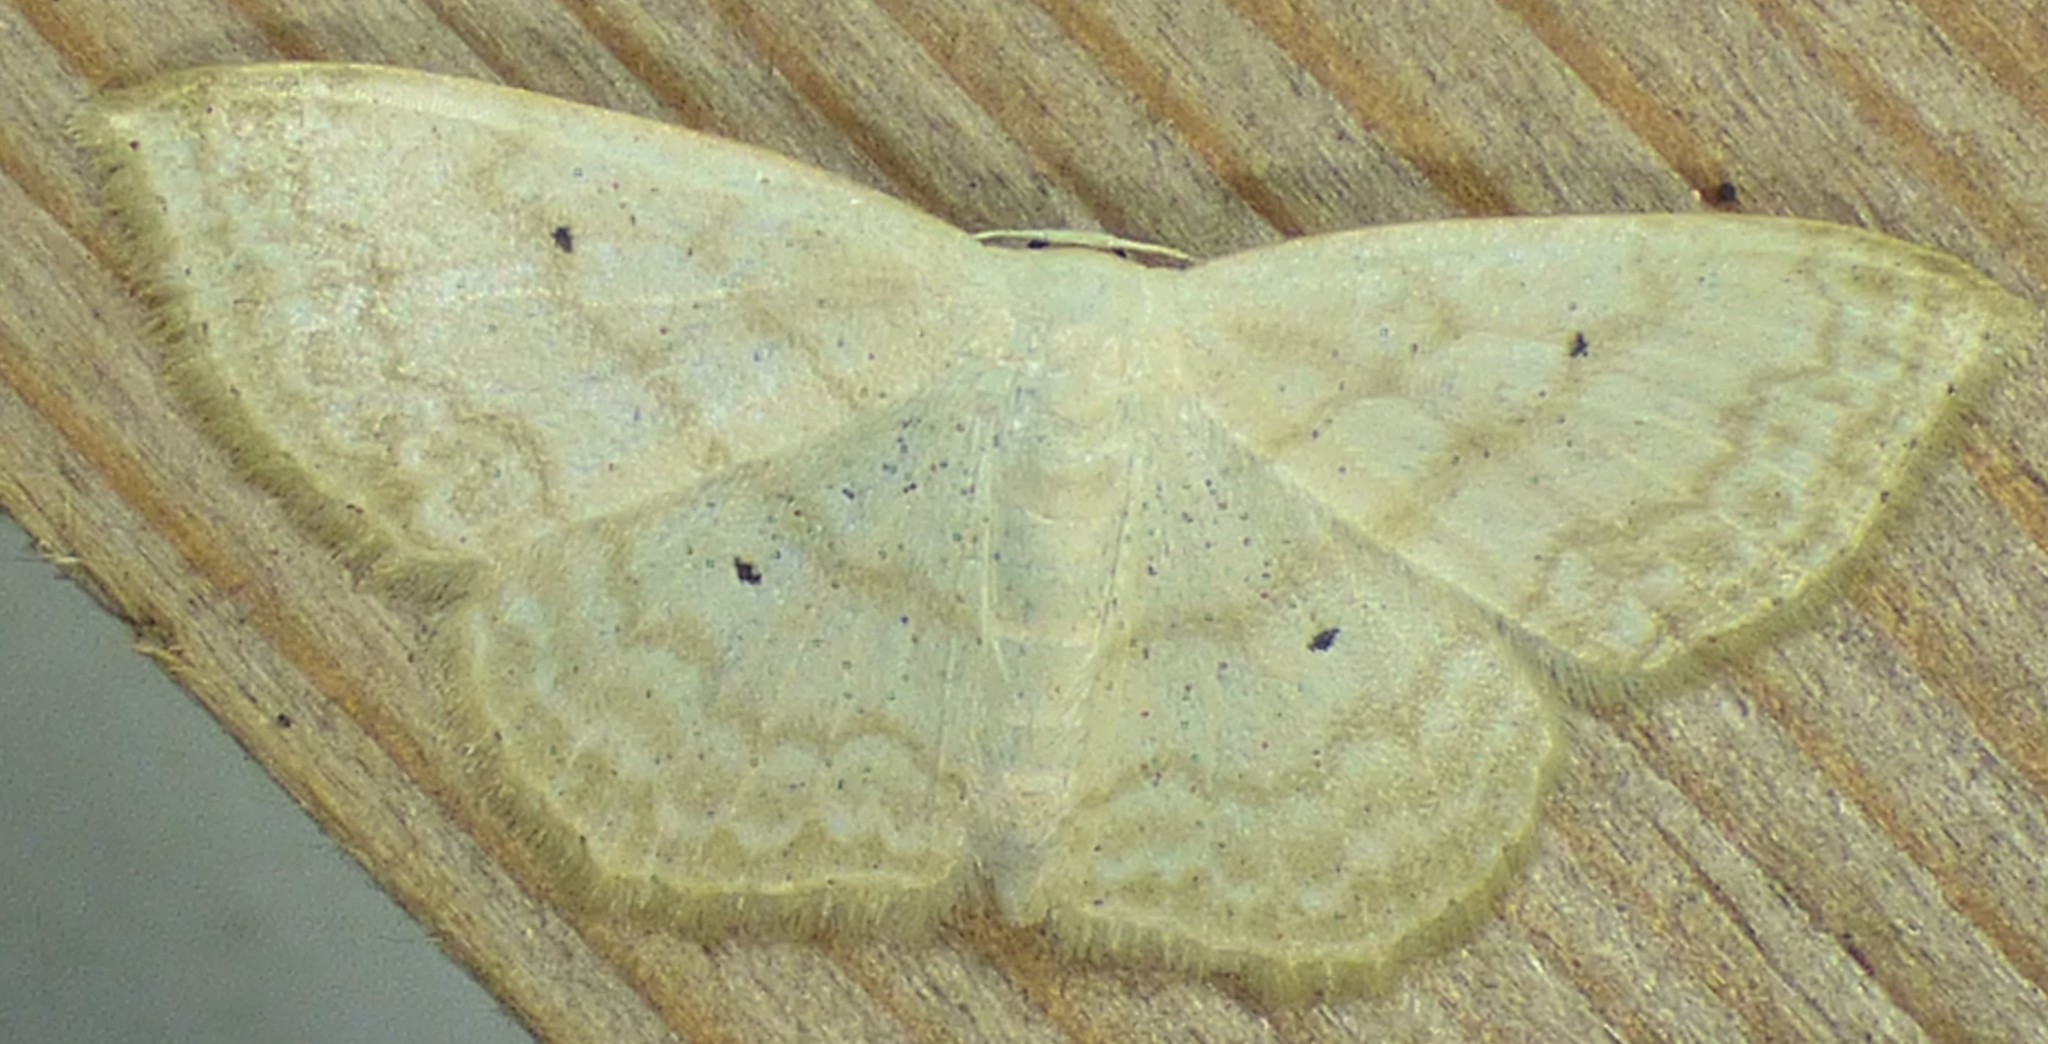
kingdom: Animalia
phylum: Arthropoda
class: Insecta
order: Lepidoptera
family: Geometridae
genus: Scopula
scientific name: Scopula limboundata
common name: Large lace border
